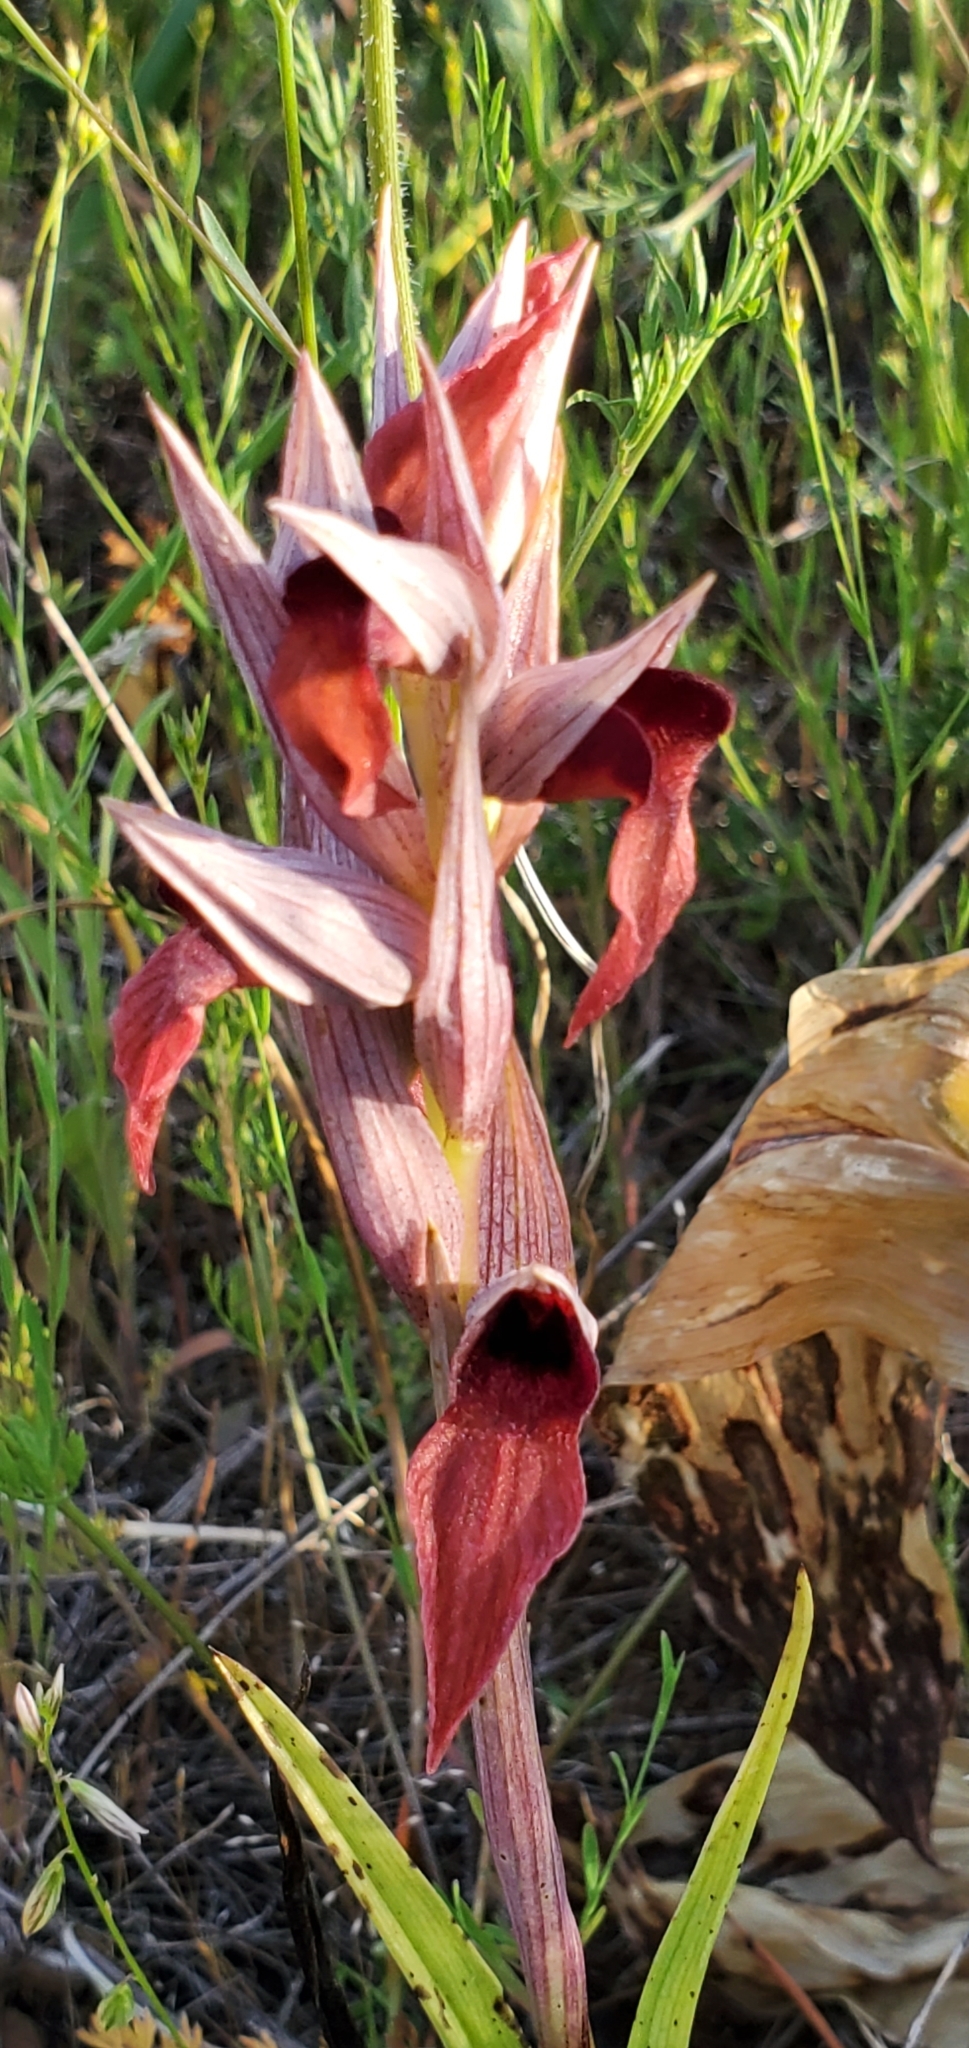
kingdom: Plantae
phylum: Tracheophyta
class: Liliopsida
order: Asparagales
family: Orchidaceae
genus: Serapias
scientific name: Serapias vomeracea
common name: Long-lipped tongue-orchid
